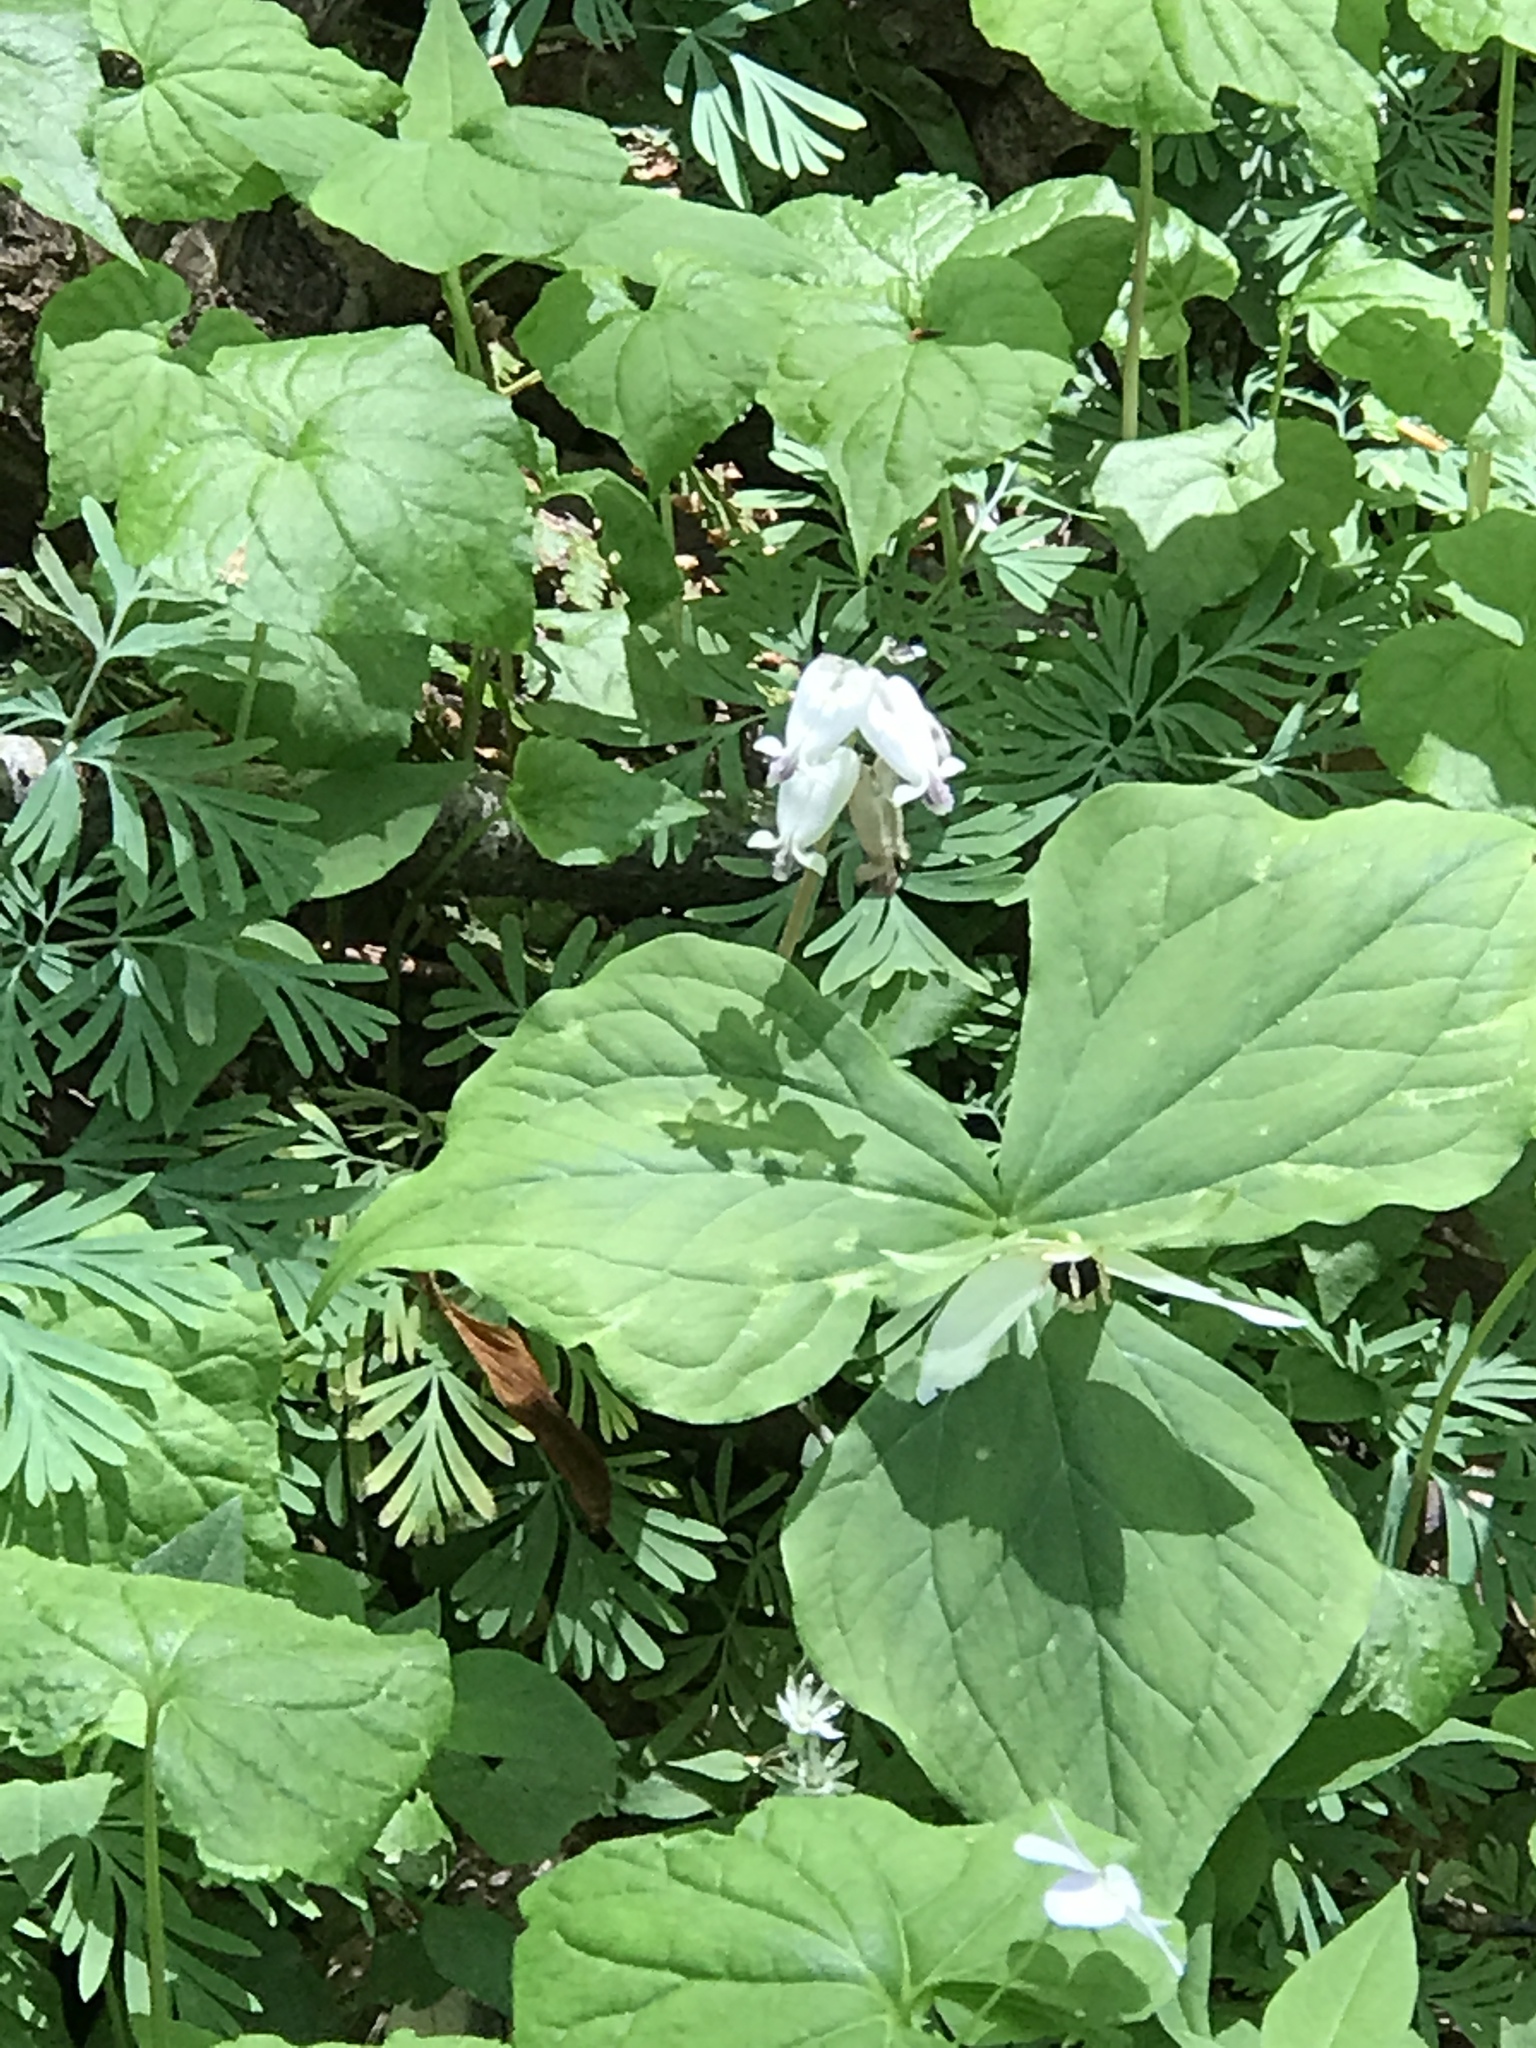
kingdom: Plantae
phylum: Tracheophyta
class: Magnoliopsida
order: Ranunculales
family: Papaveraceae
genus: Dicentra
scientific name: Dicentra canadensis
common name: Squirrel-corn
